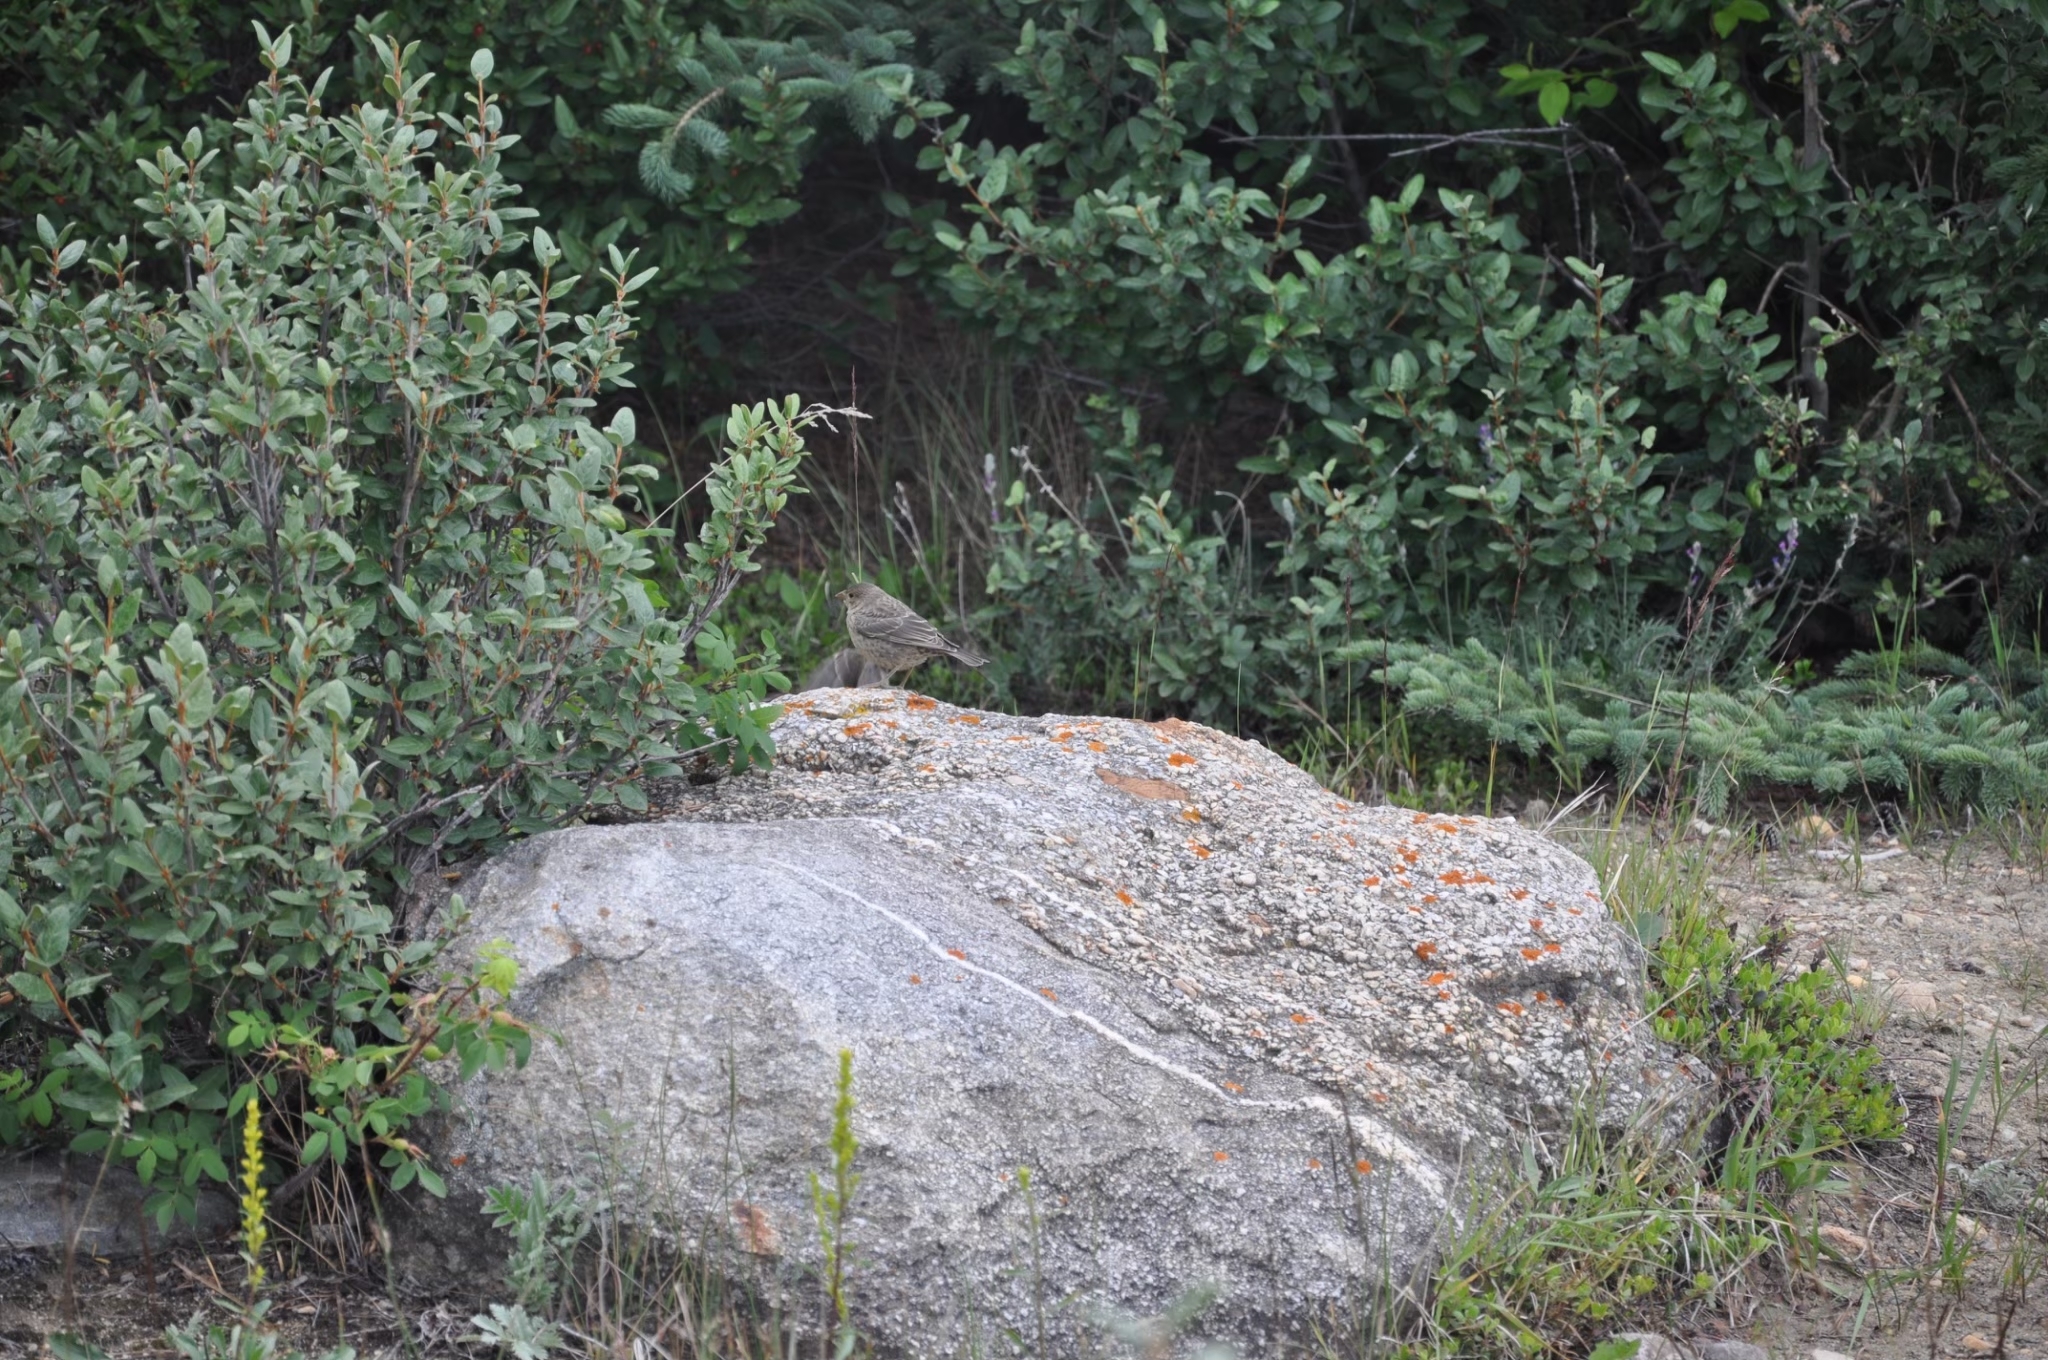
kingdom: Animalia
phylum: Chordata
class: Aves
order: Passeriformes
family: Icteridae
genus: Molothrus
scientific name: Molothrus ater
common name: Brown-headed cowbird
